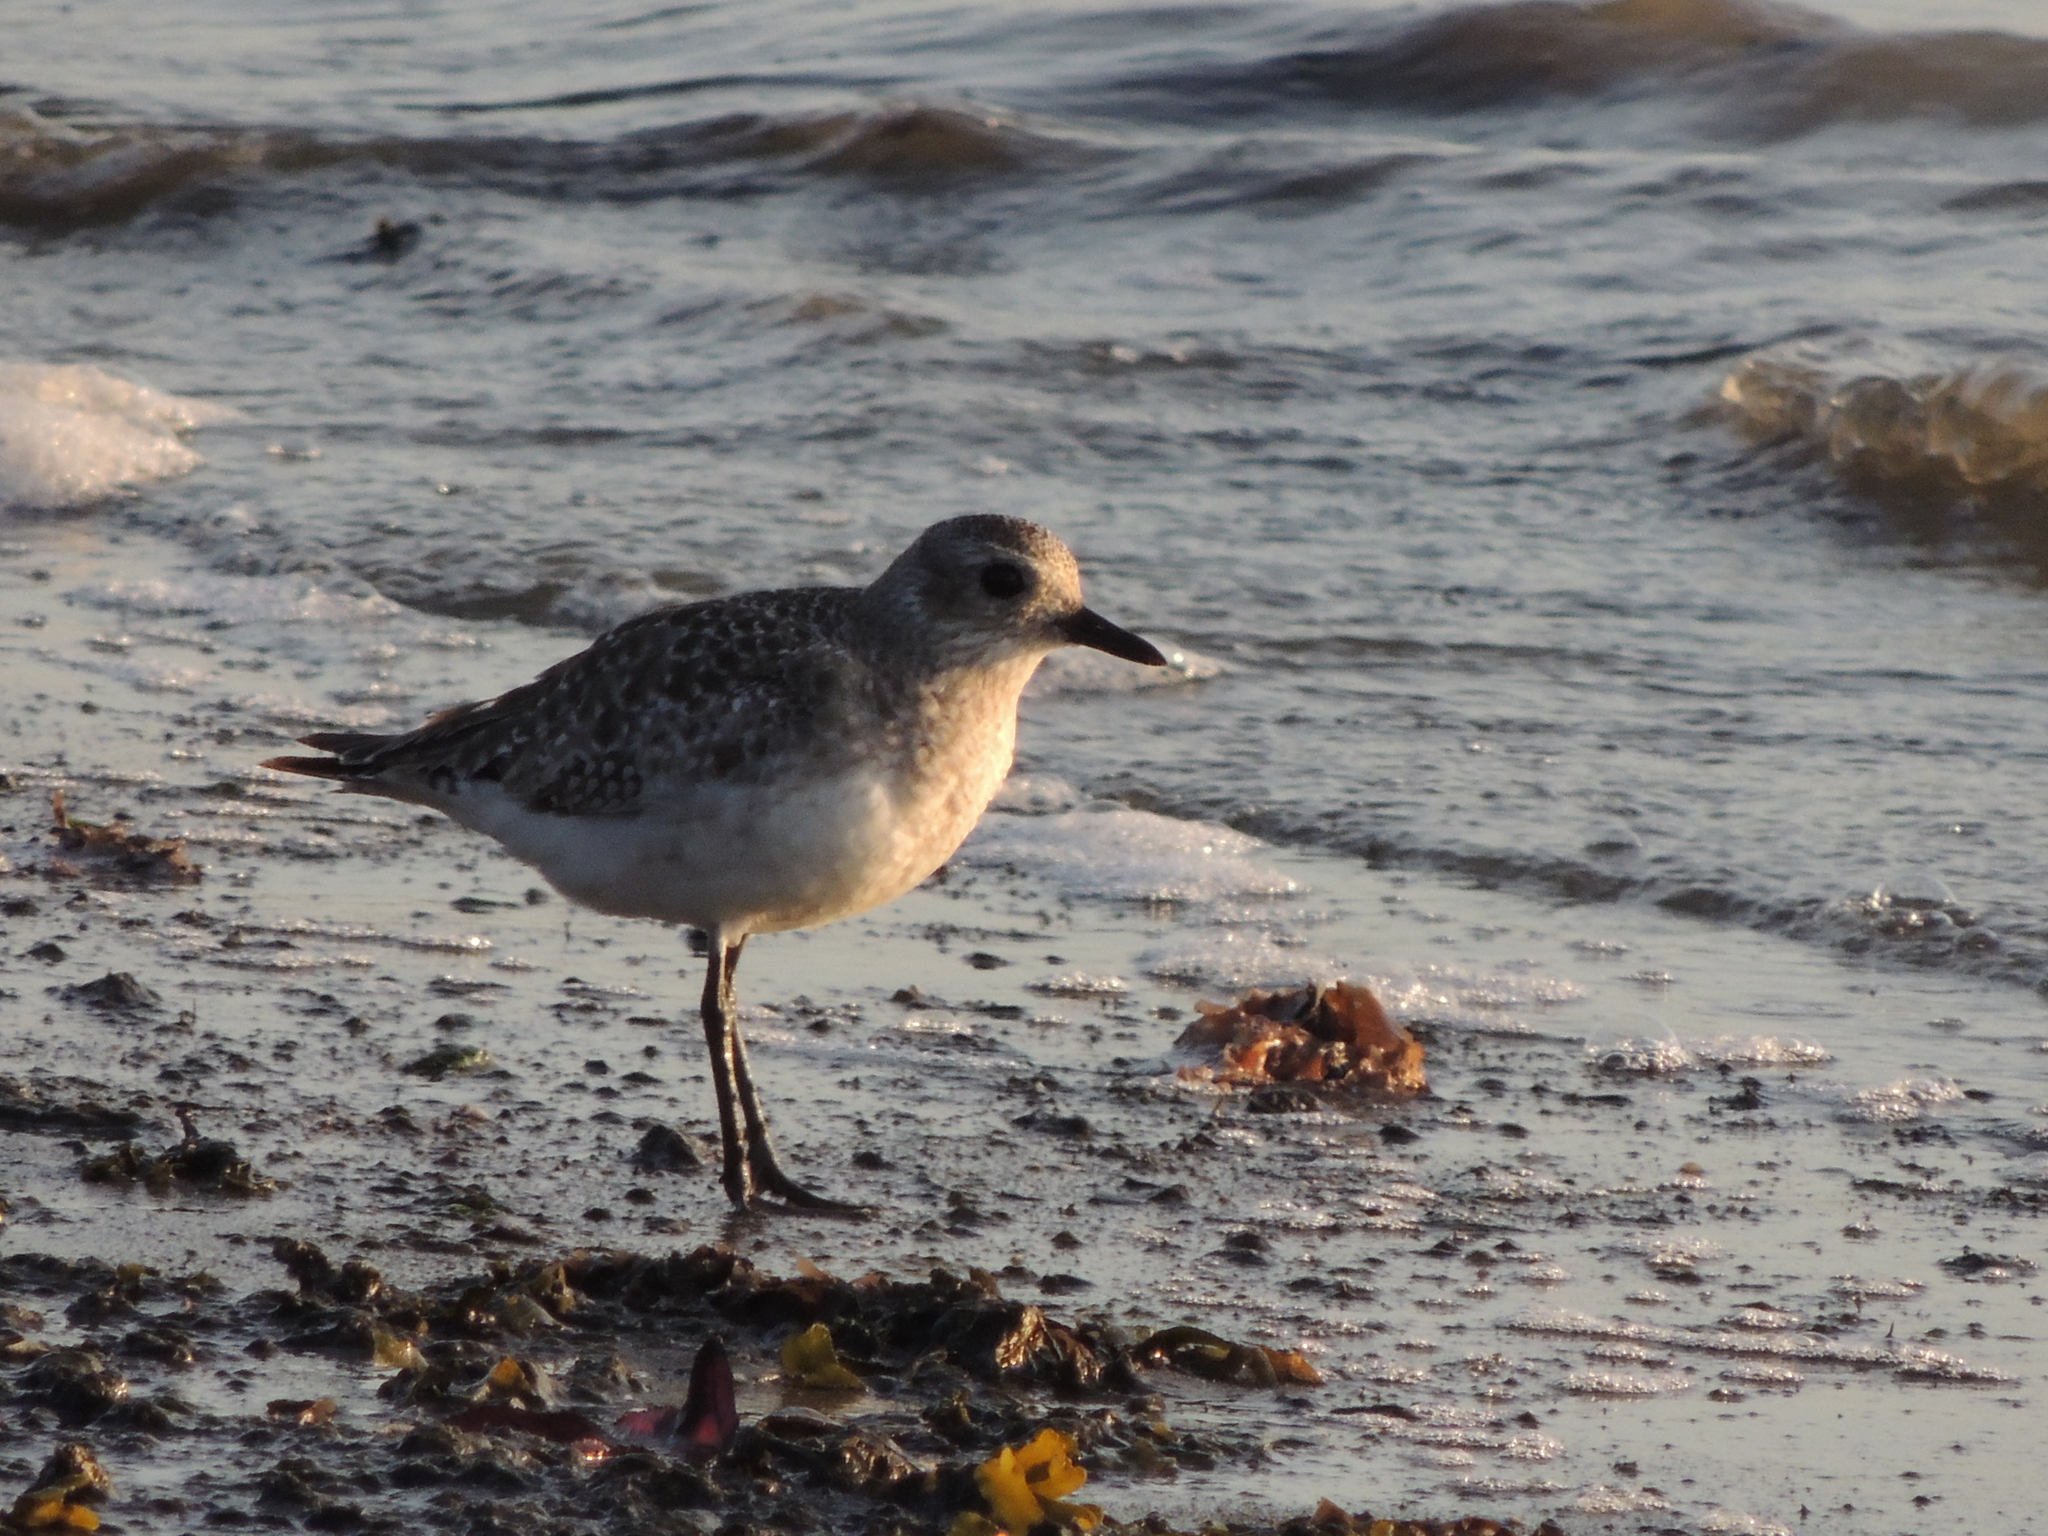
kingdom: Animalia
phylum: Chordata
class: Aves
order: Charadriiformes
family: Charadriidae
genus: Pluvialis
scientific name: Pluvialis squatarola
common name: Grey plover
